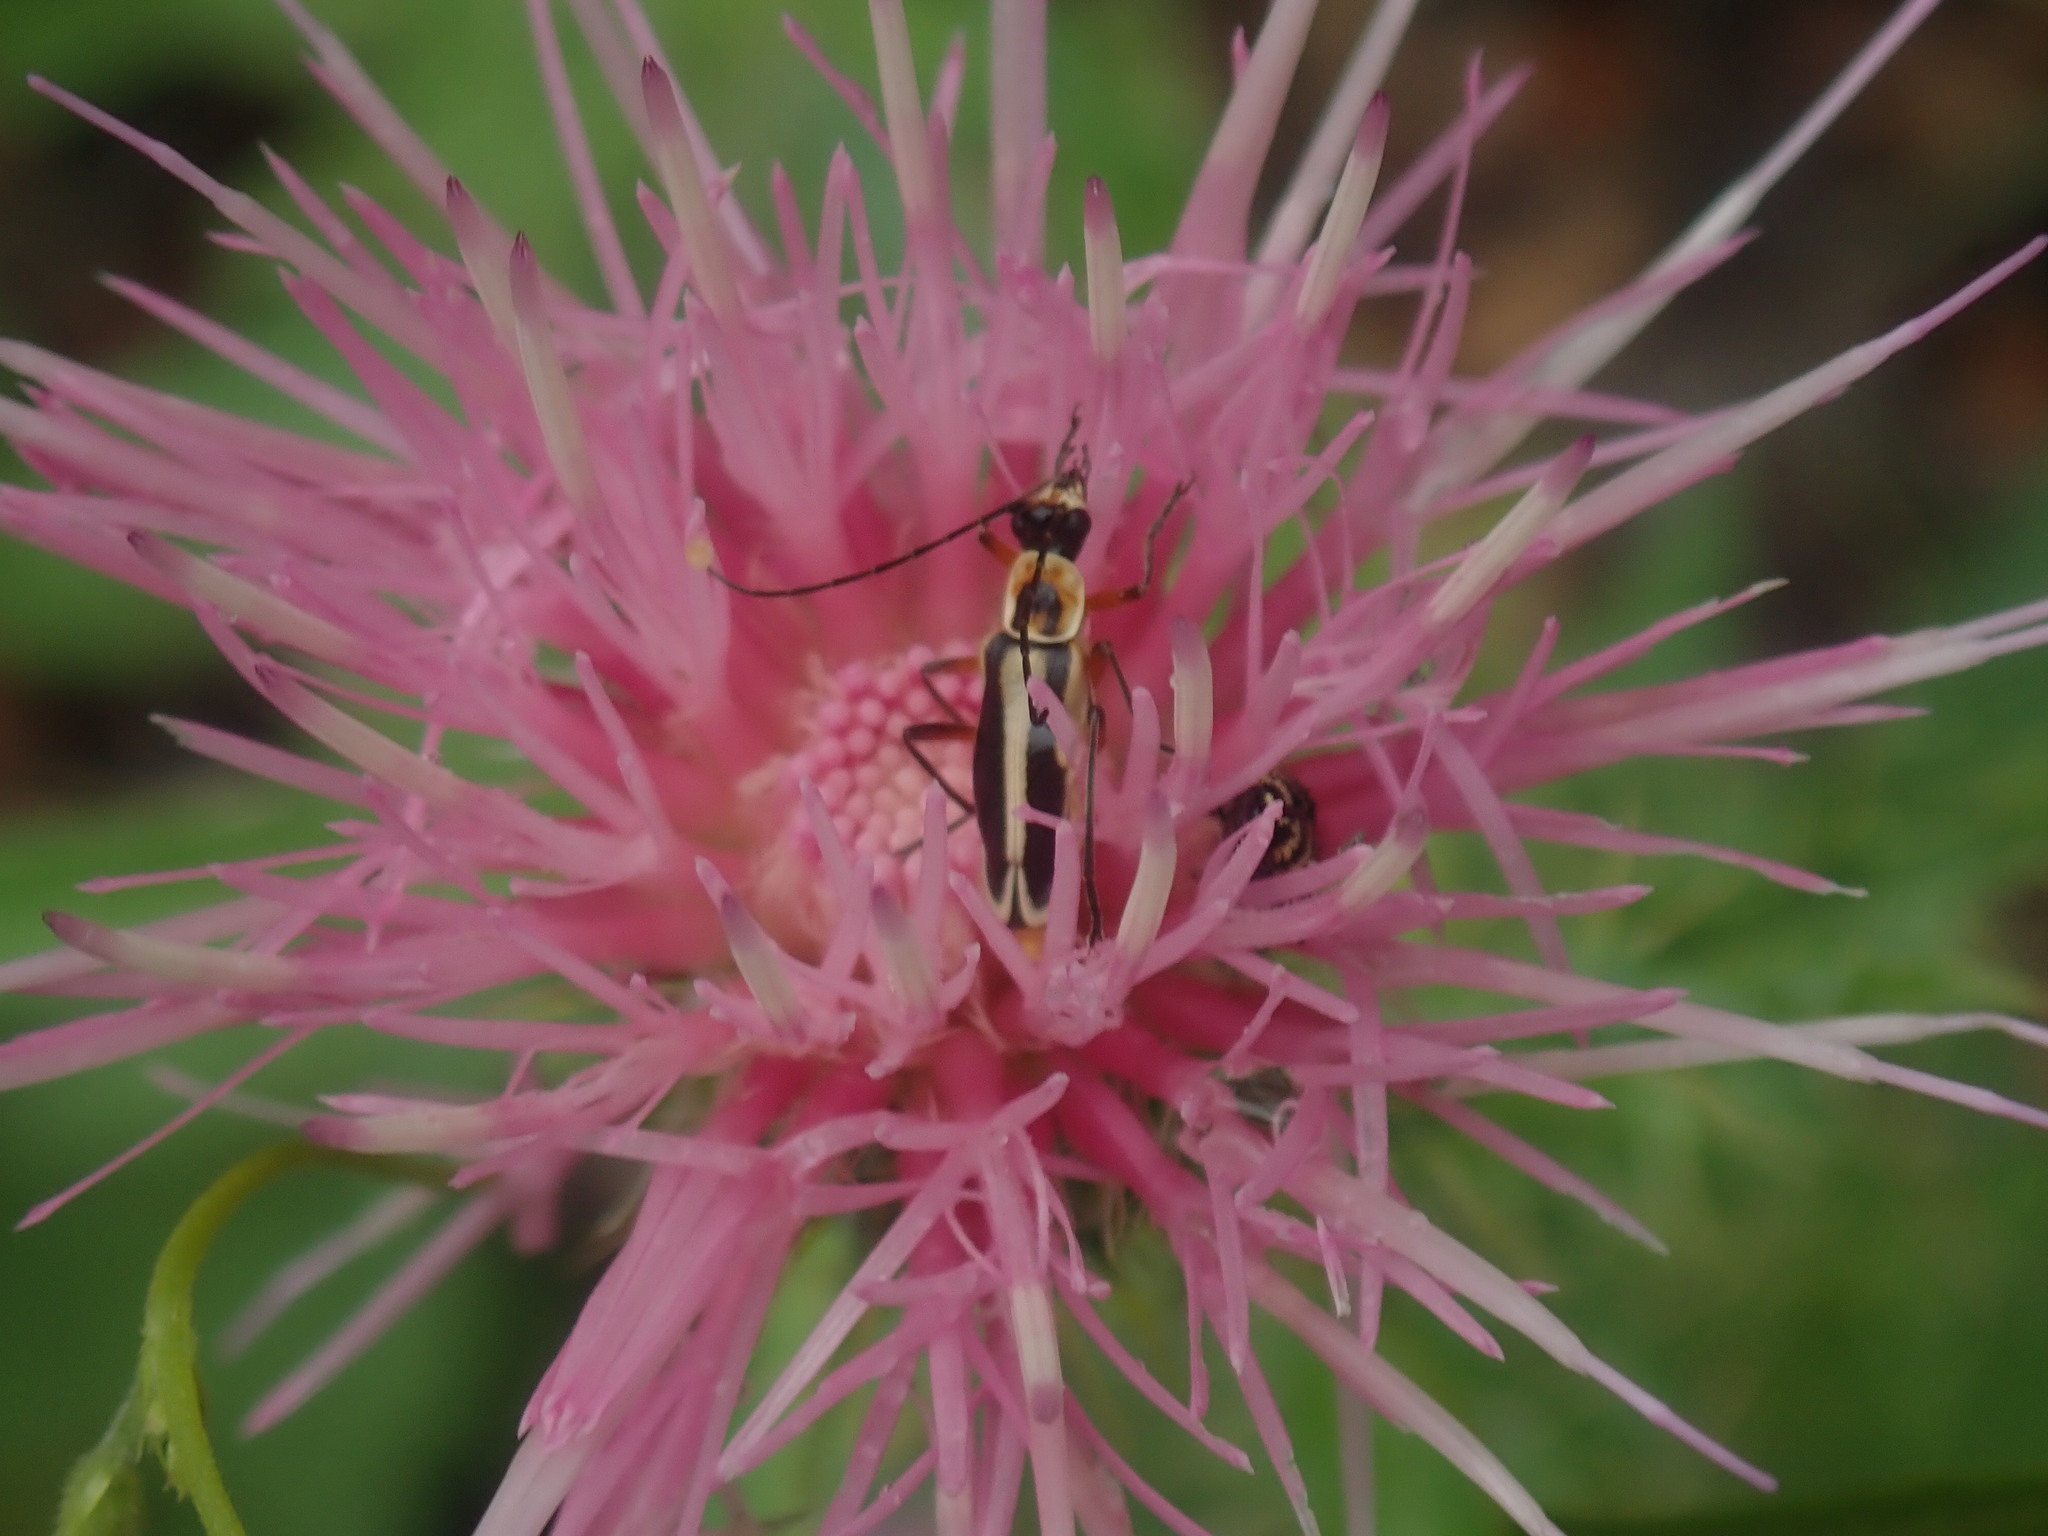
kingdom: Animalia
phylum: Arthropoda
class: Insecta
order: Coleoptera
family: Cantharidae
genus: Chauliognathus
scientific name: Chauliognathus lewisi
